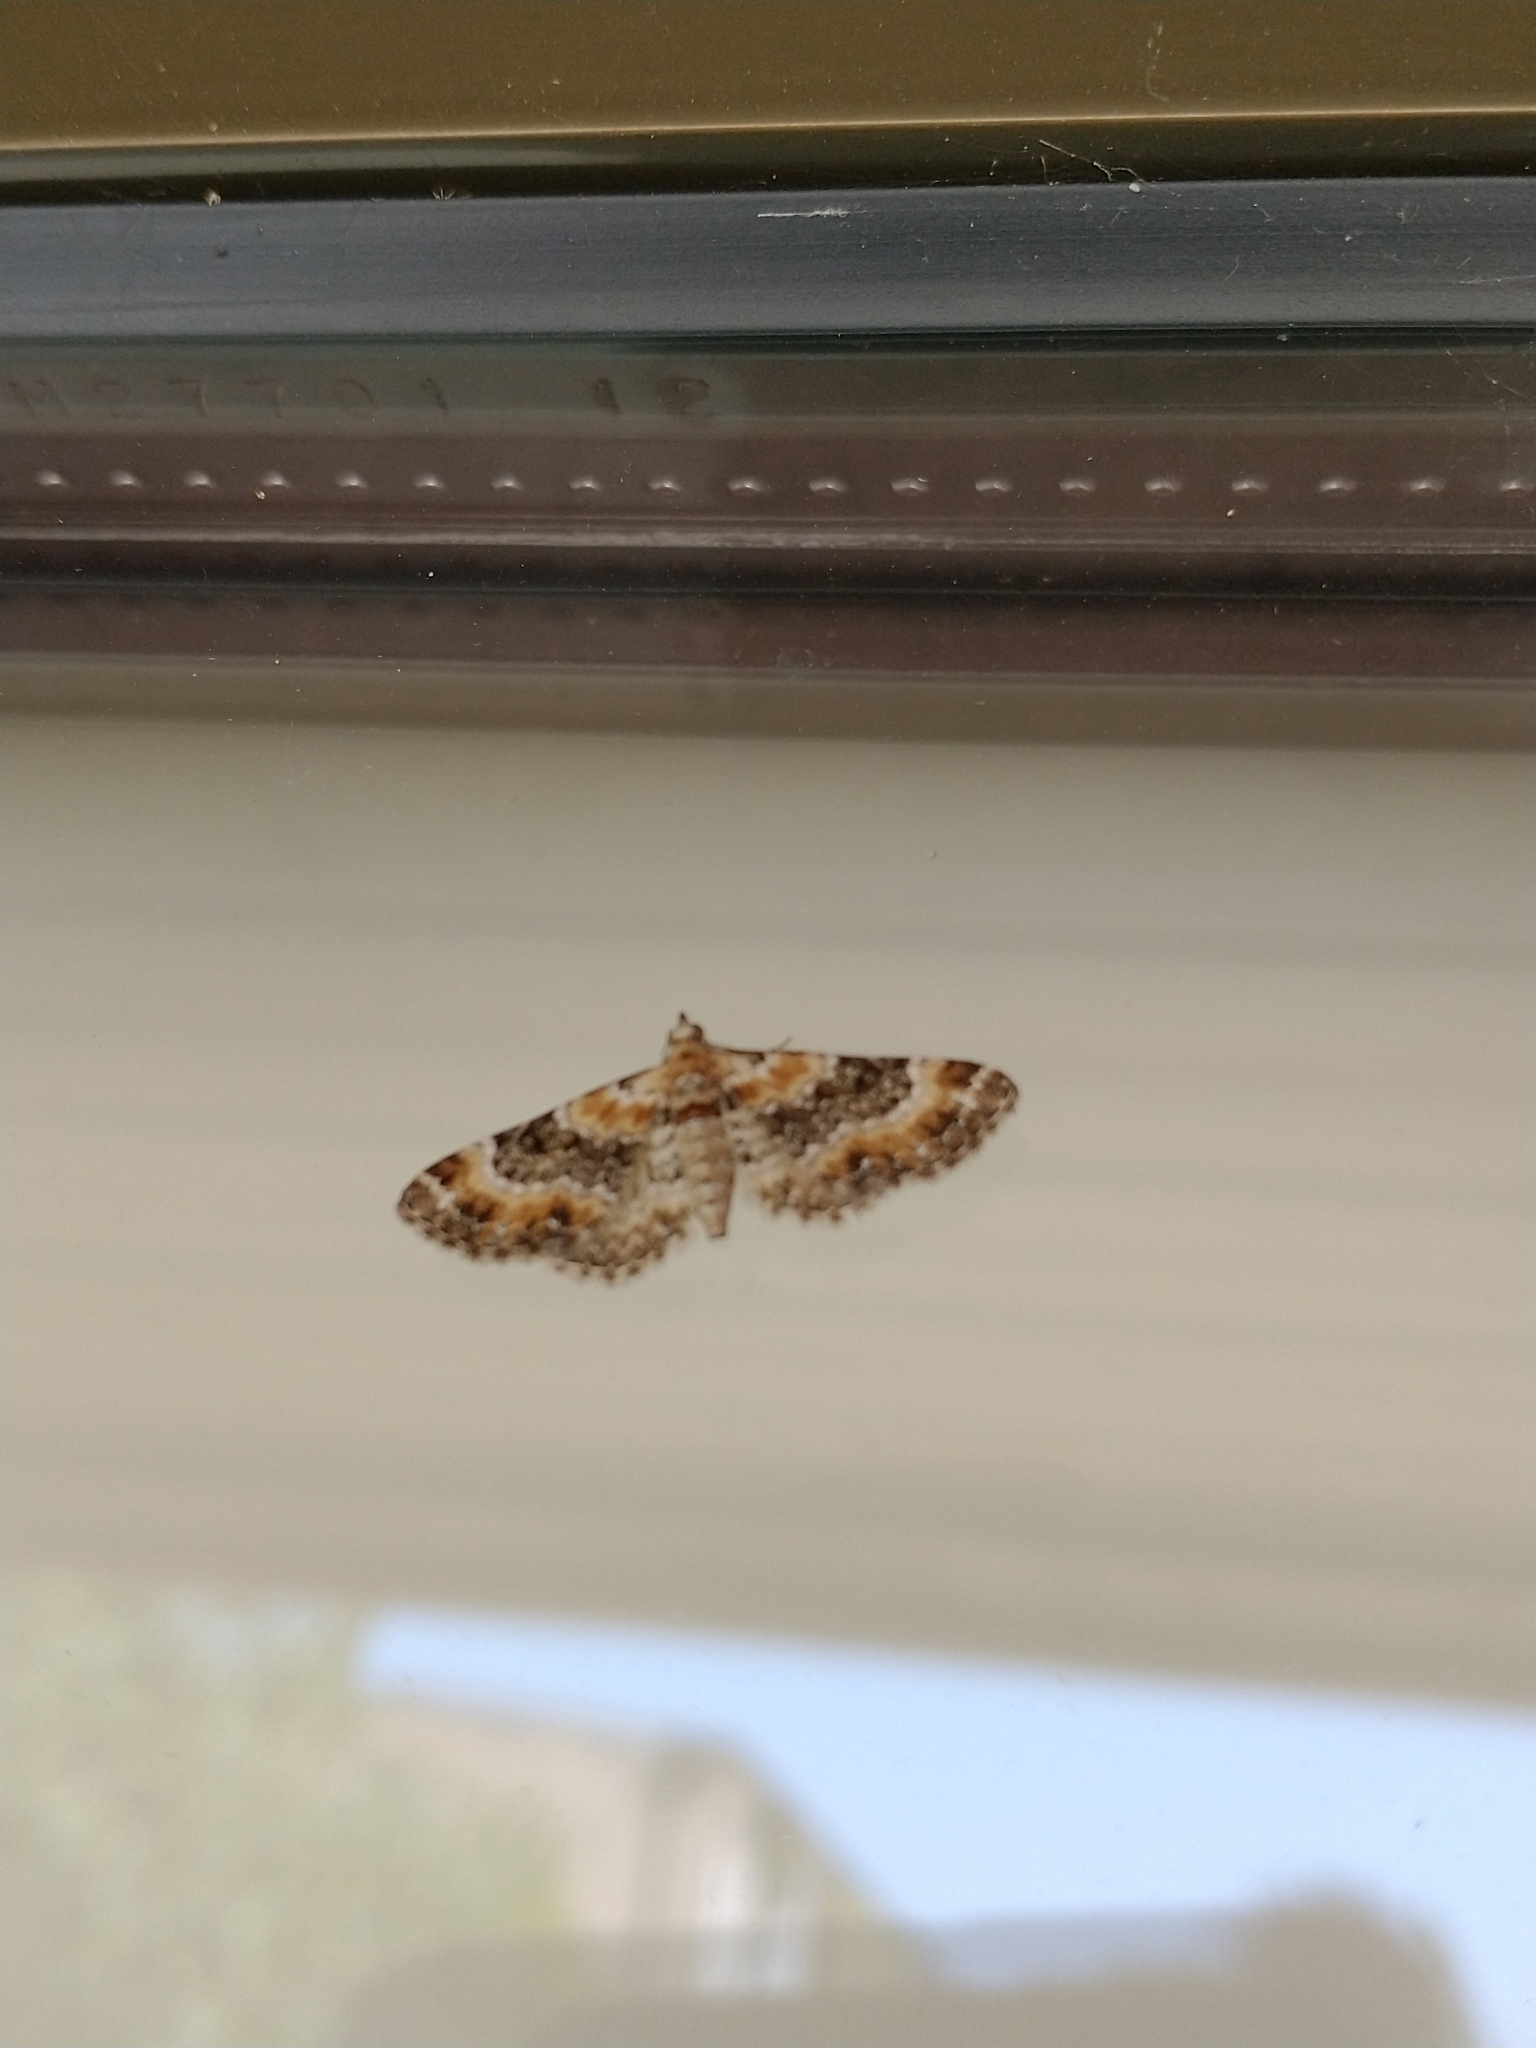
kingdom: Animalia
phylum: Arthropoda
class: Insecta
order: Lepidoptera
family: Geometridae
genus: Eupithecia
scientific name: Eupithecia pulchellata
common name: Foxglove pug
